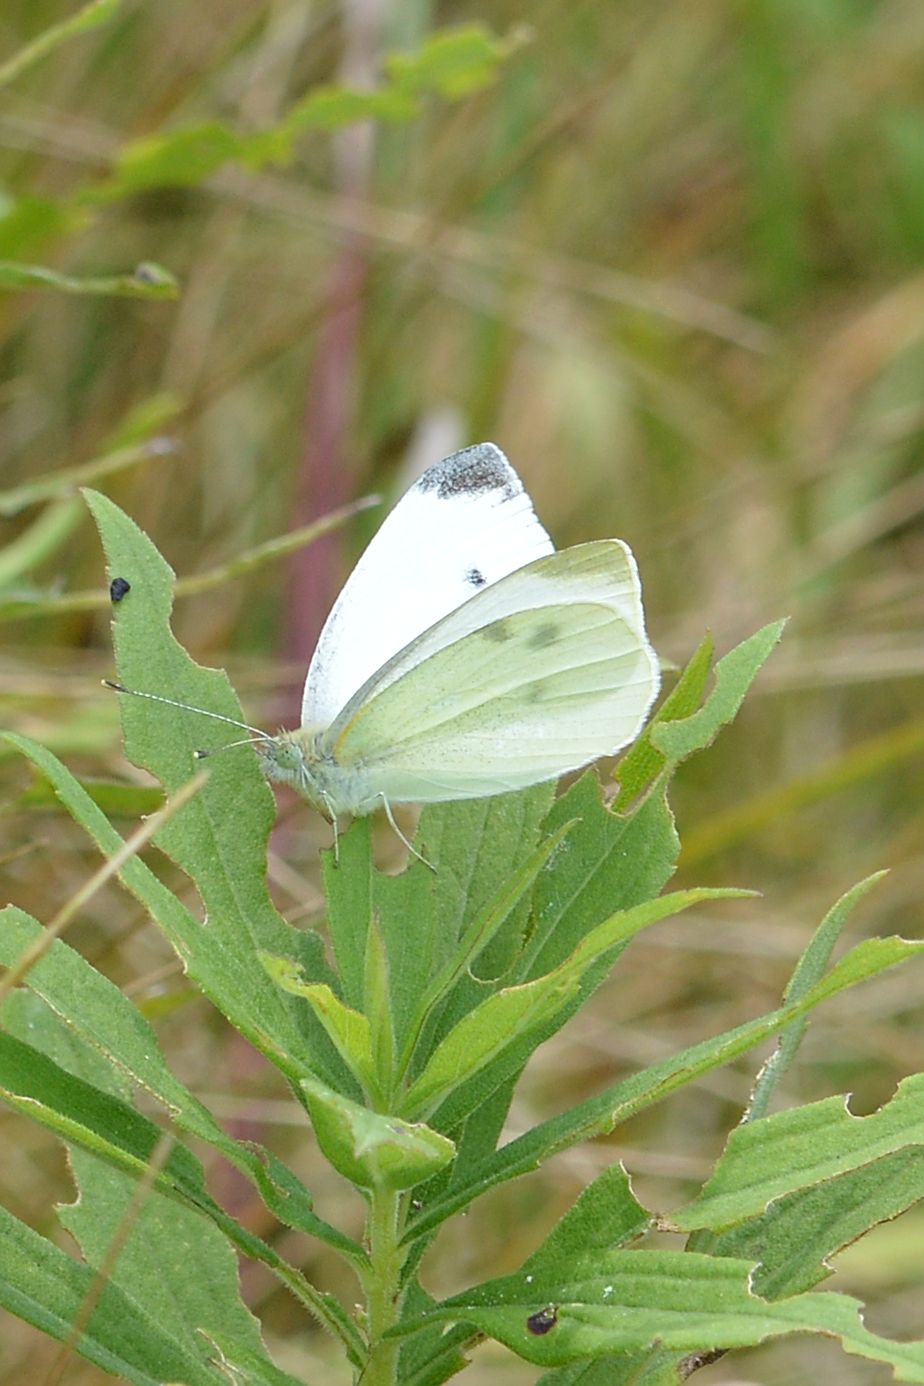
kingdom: Animalia
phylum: Arthropoda
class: Insecta
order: Lepidoptera
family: Pieridae
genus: Pieris
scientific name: Pieris rapae
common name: Small white
